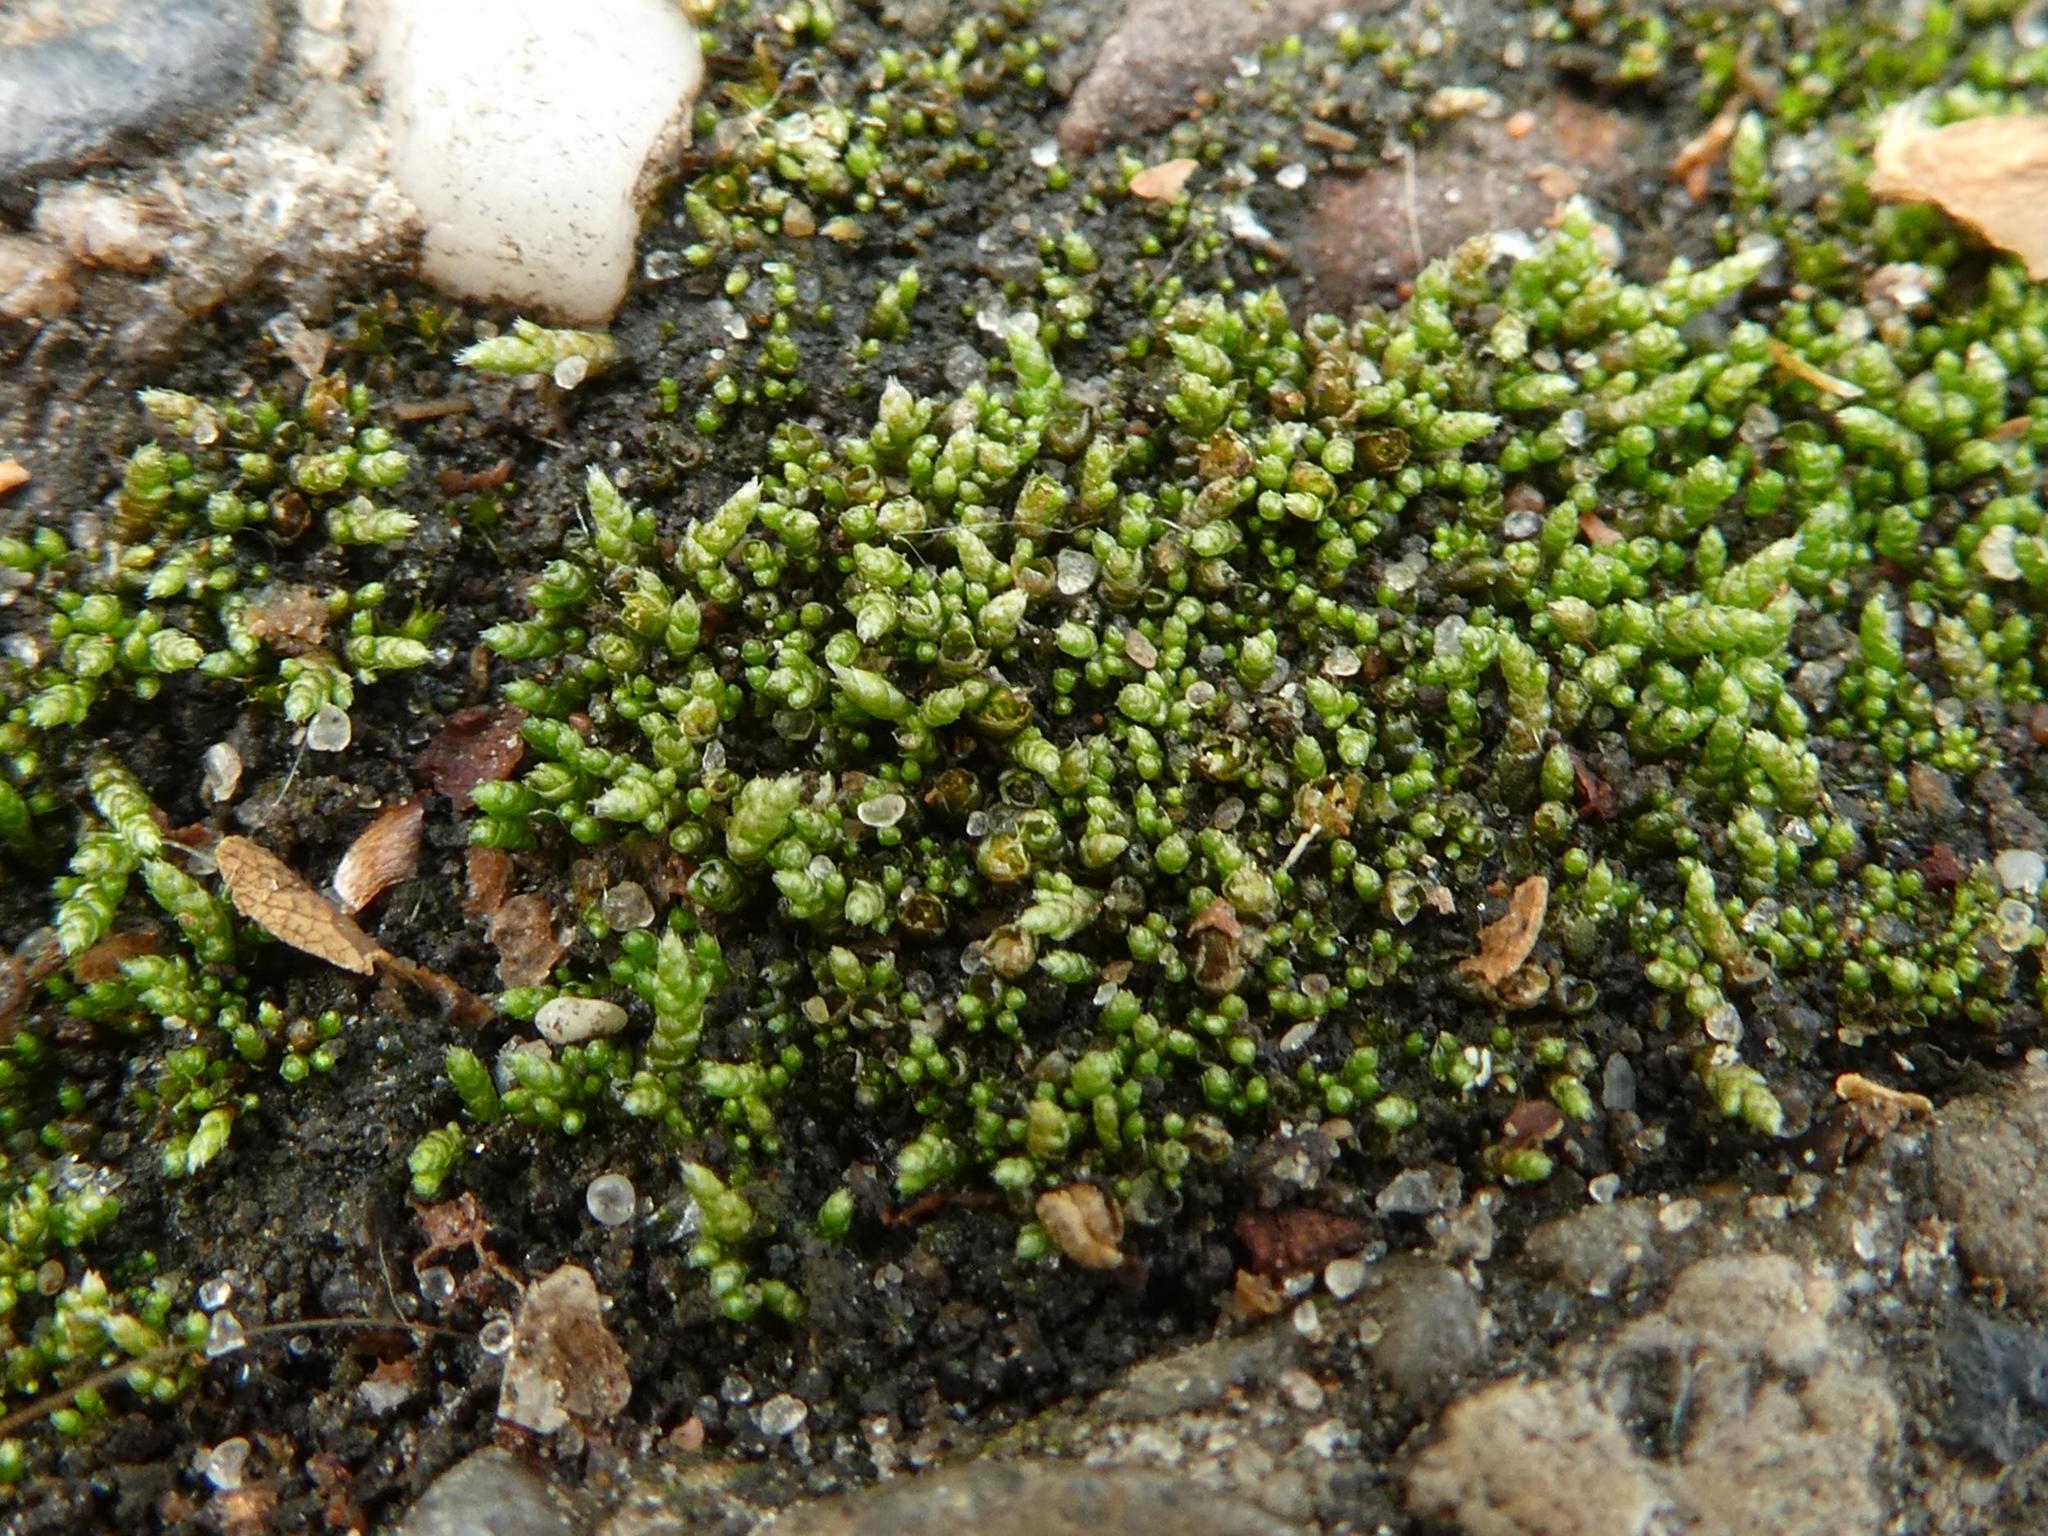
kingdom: Plantae
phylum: Bryophyta
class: Bryopsida
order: Bryales
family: Bryaceae
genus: Bryum
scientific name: Bryum argenteum
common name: Silver-moss
